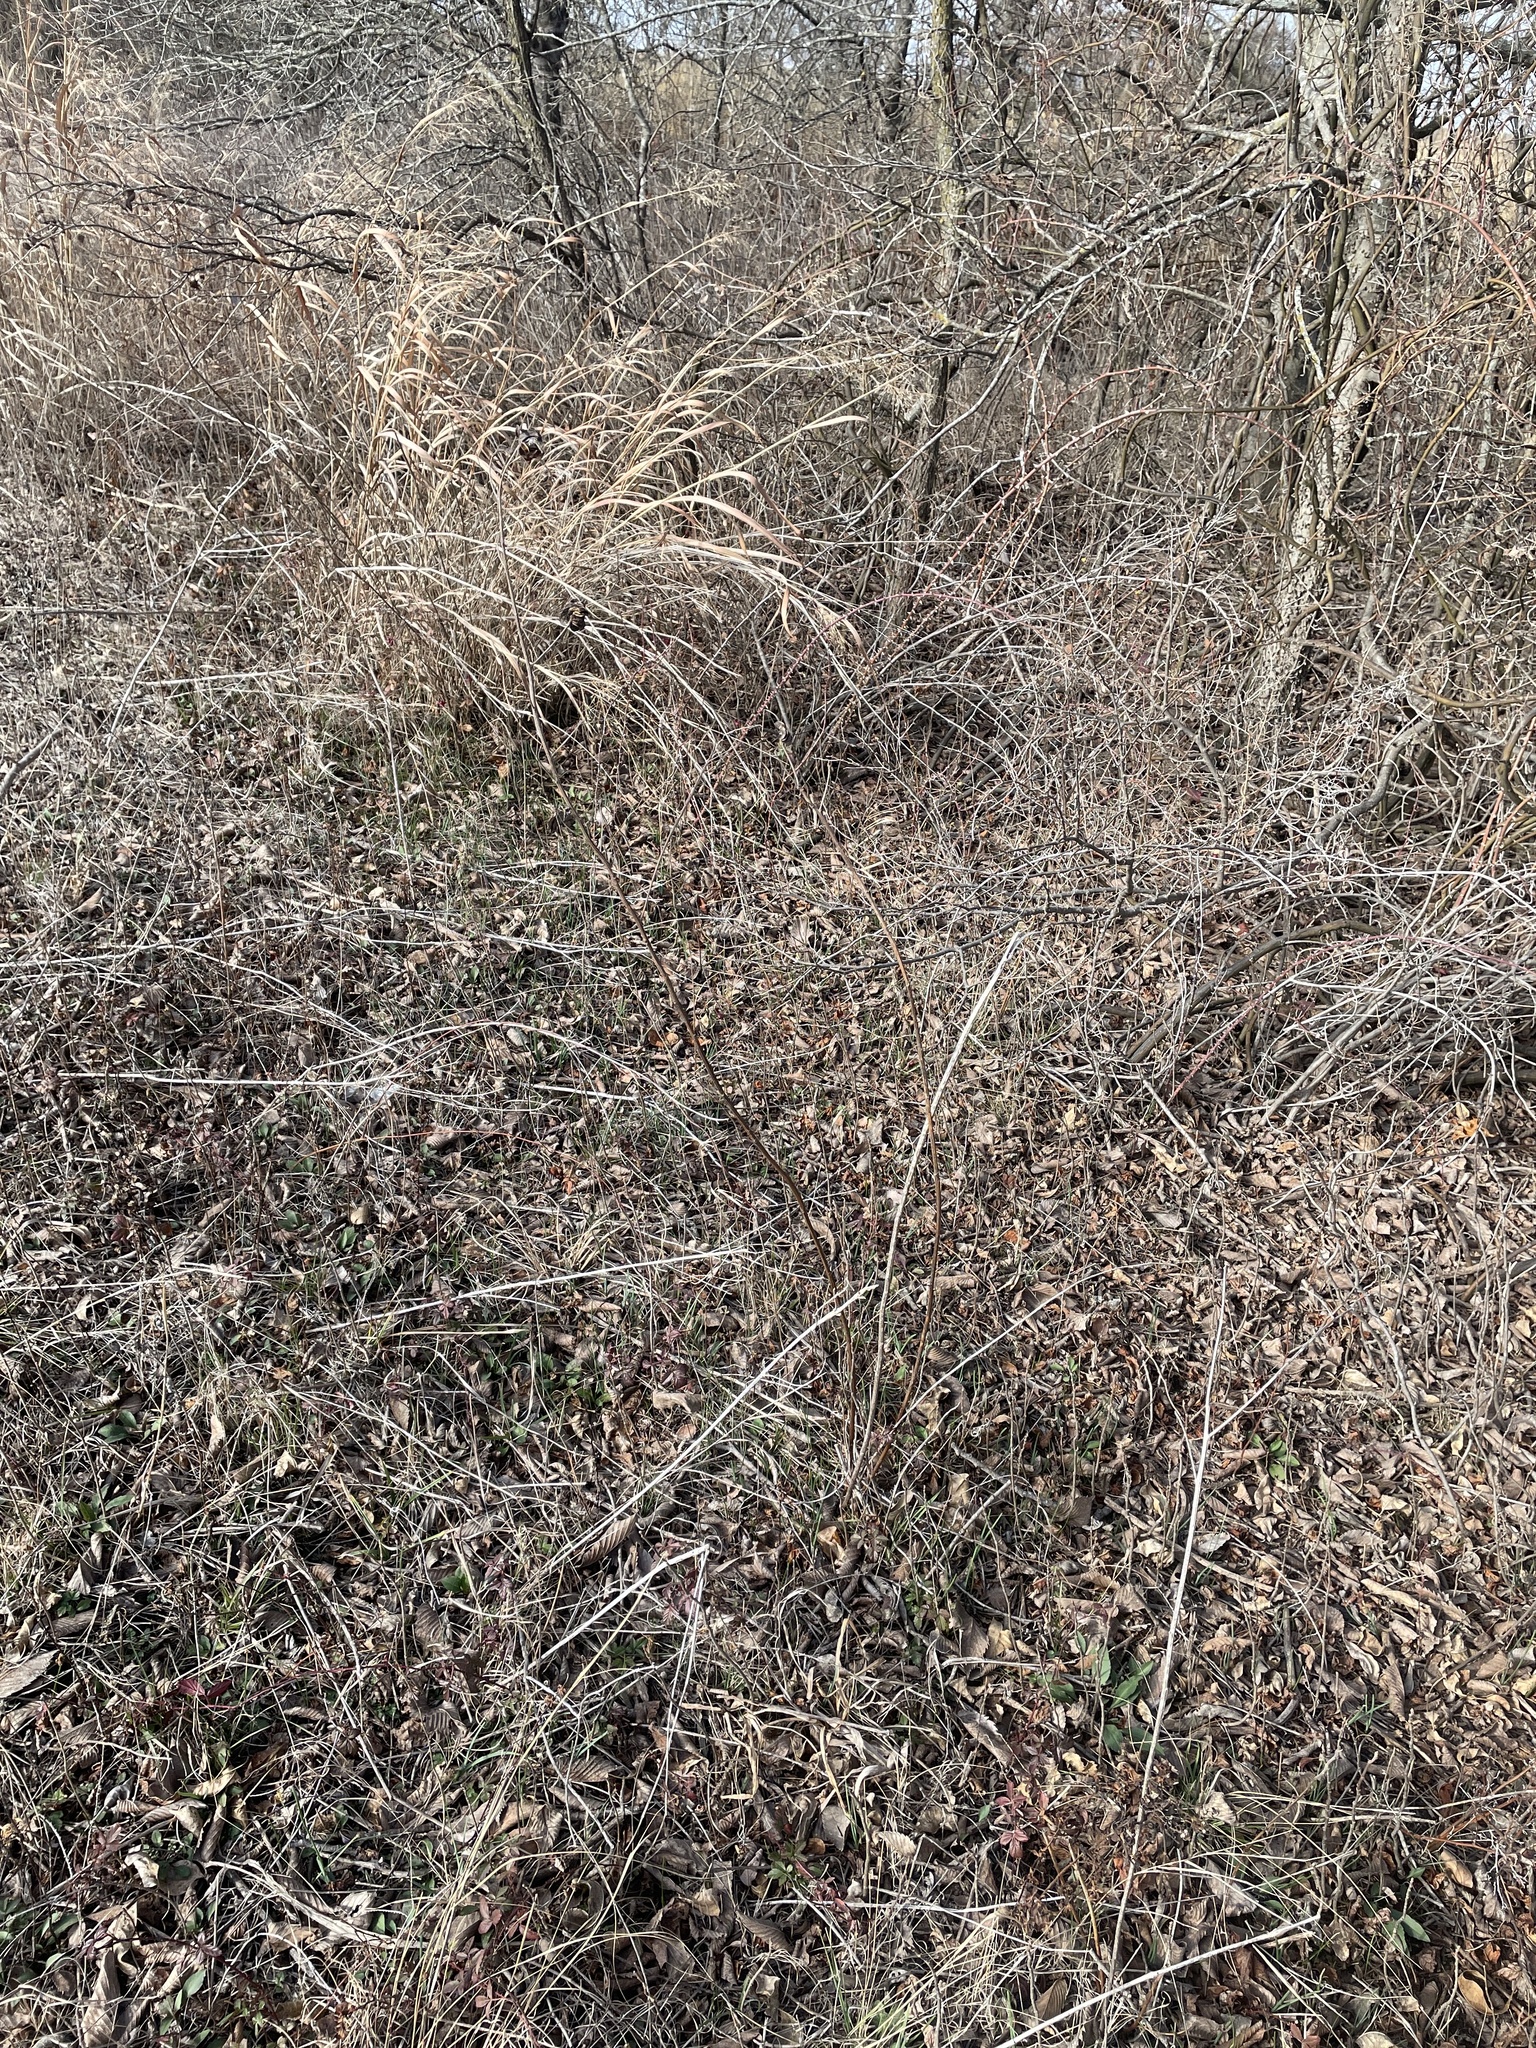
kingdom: Plantae
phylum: Tracheophyta
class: Magnoliopsida
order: Fabales
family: Fabaceae
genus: Desmanthus
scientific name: Desmanthus illinoensis
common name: Illinois bundle-flower
